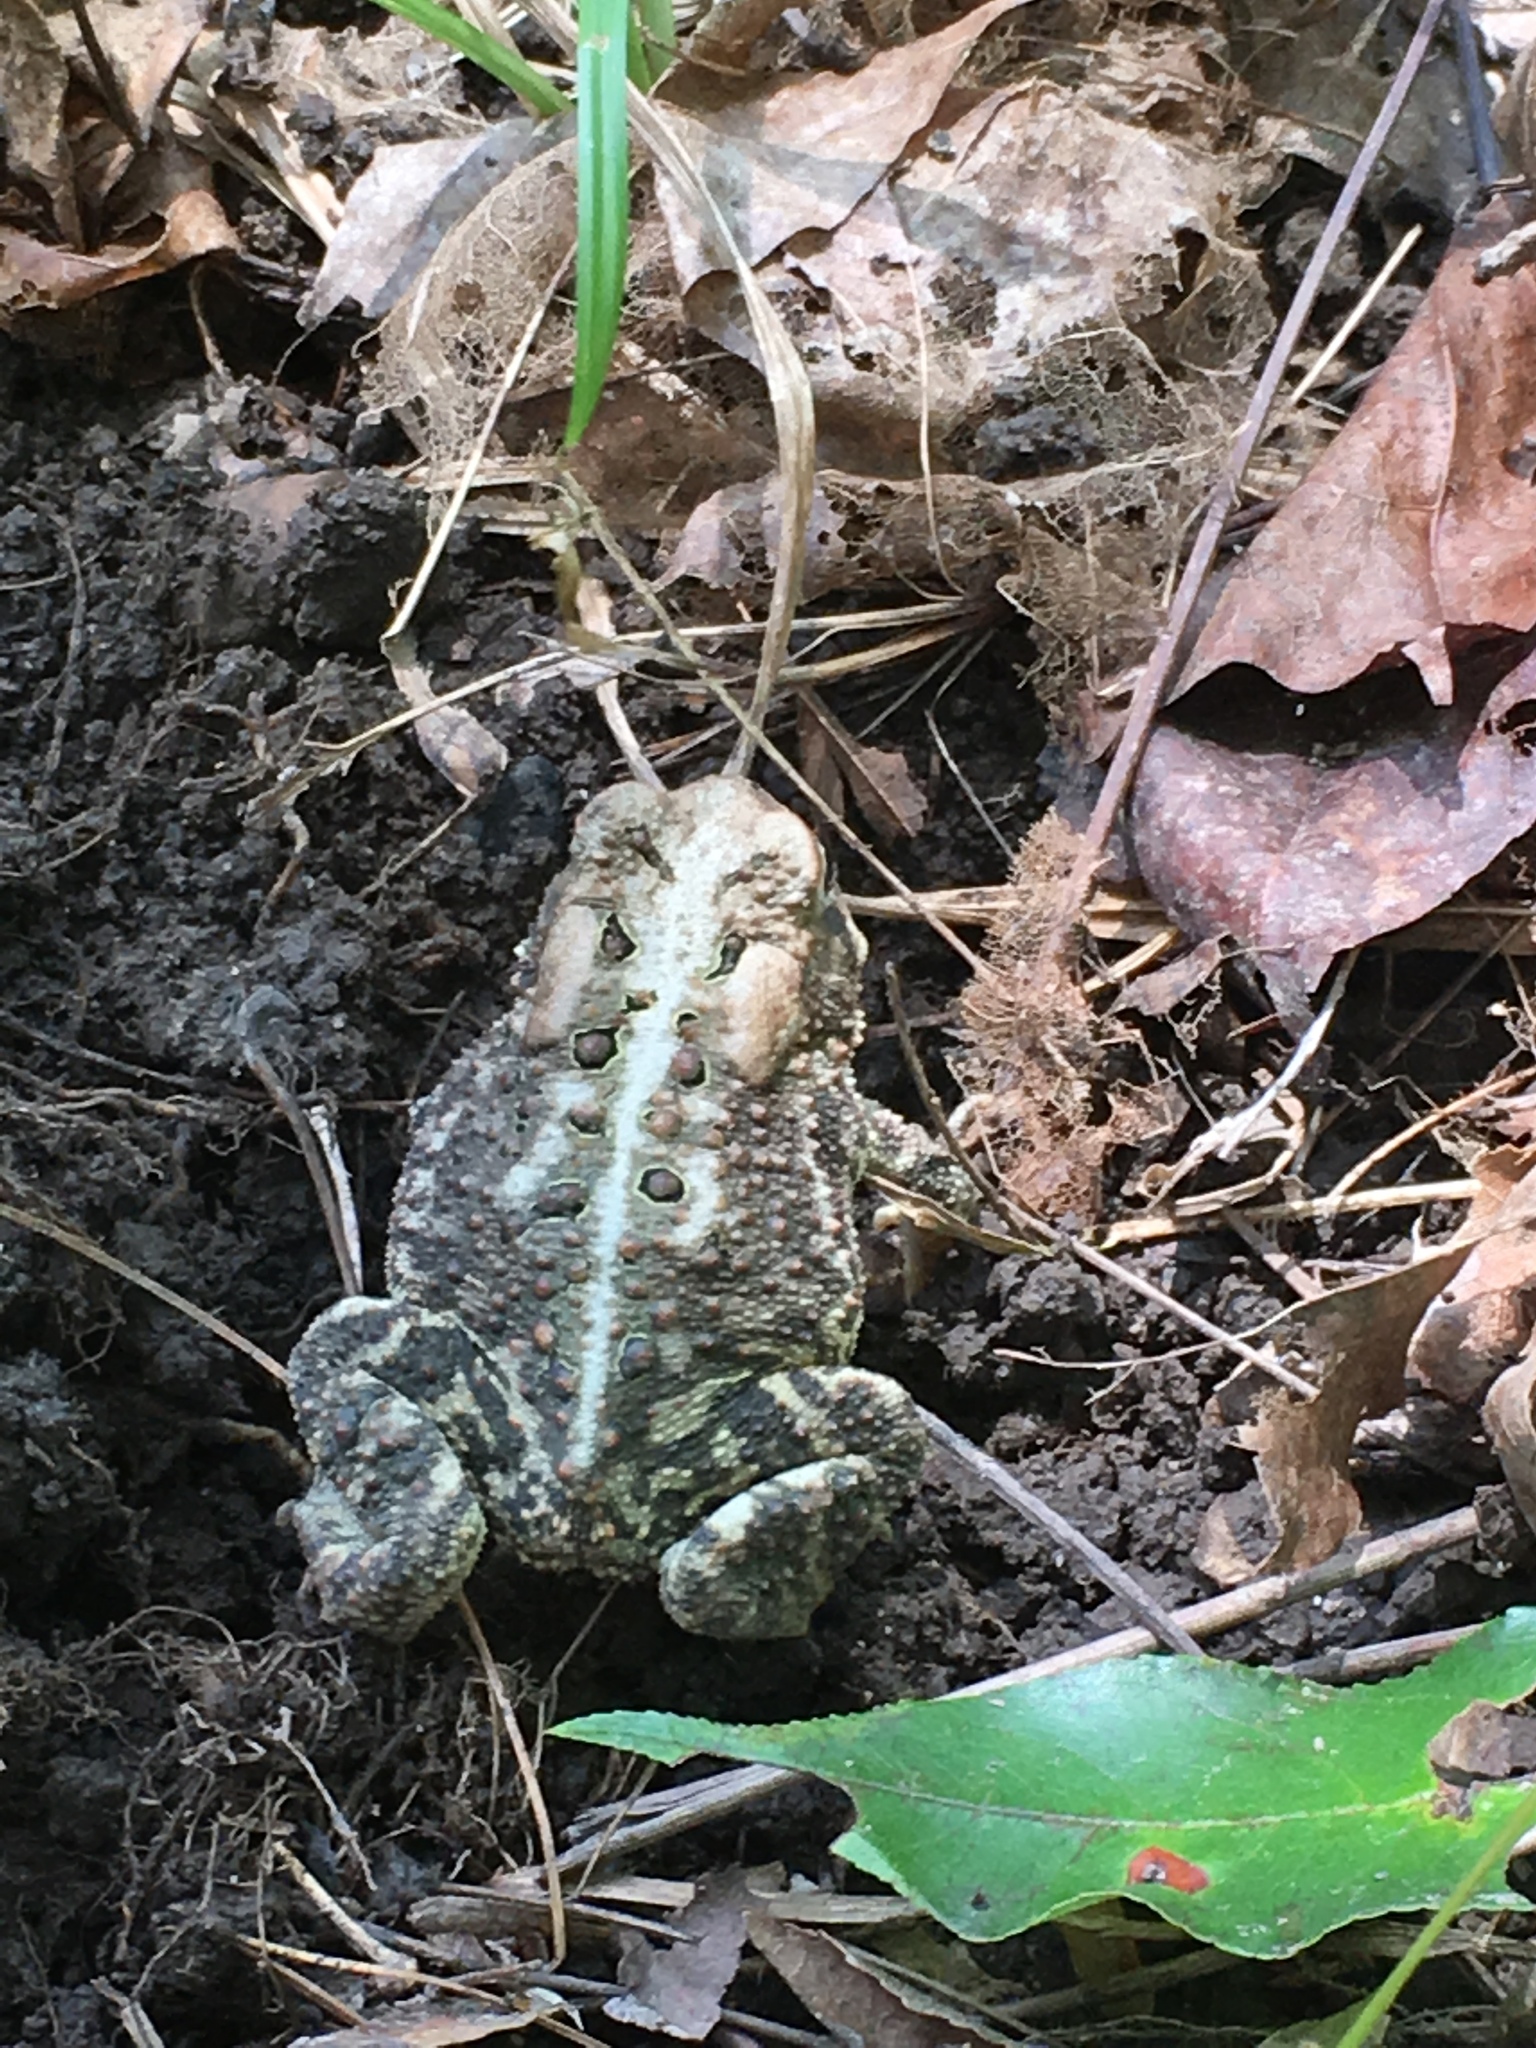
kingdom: Animalia
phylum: Chordata
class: Amphibia
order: Anura
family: Bufonidae
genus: Anaxyrus
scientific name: Anaxyrus americanus
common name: American toad
